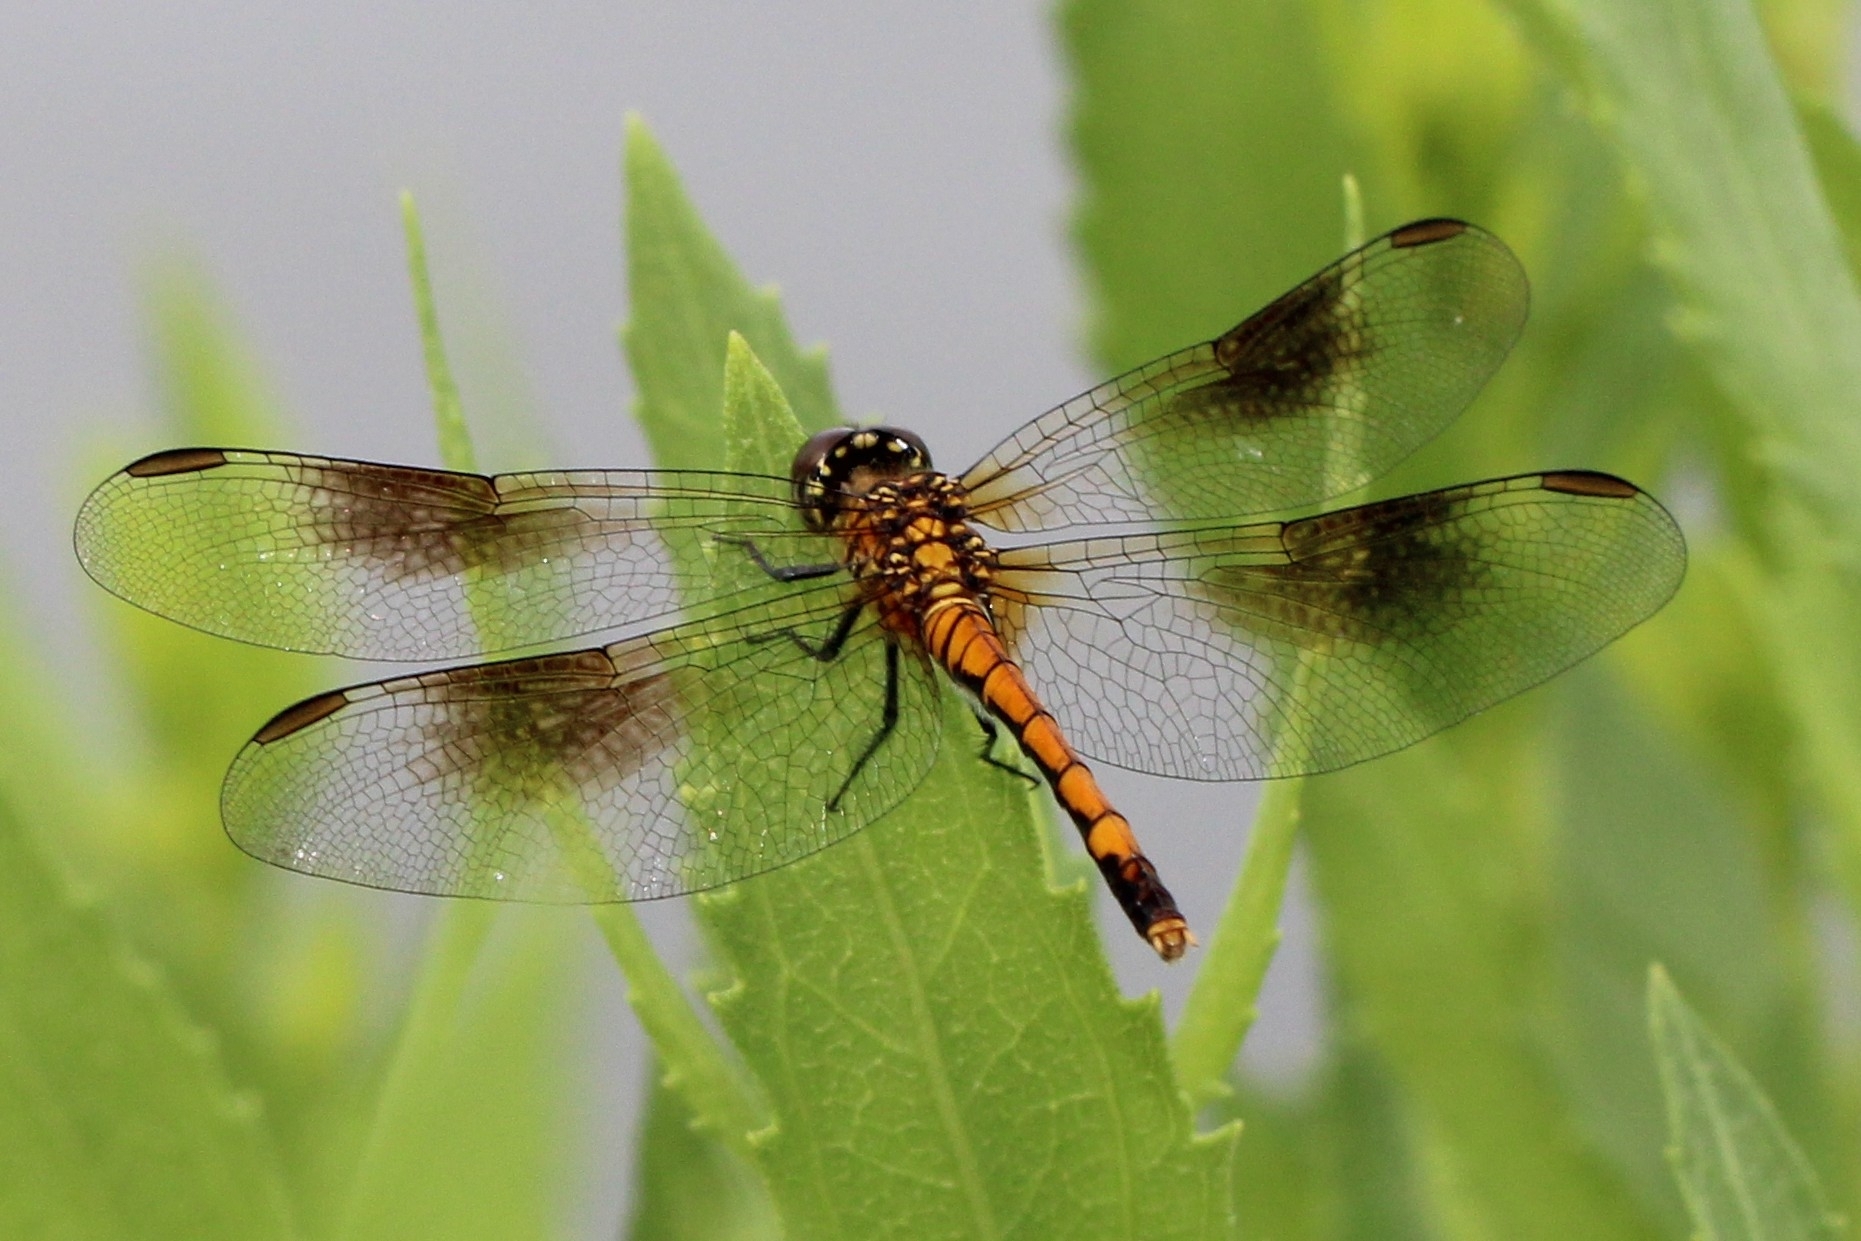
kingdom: Animalia
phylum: Arthropoda
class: Insecta
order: Odonata
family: Libellulidae
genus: Erythrodiplax
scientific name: Erythrodiplax berenice
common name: Seaside dragonlet
